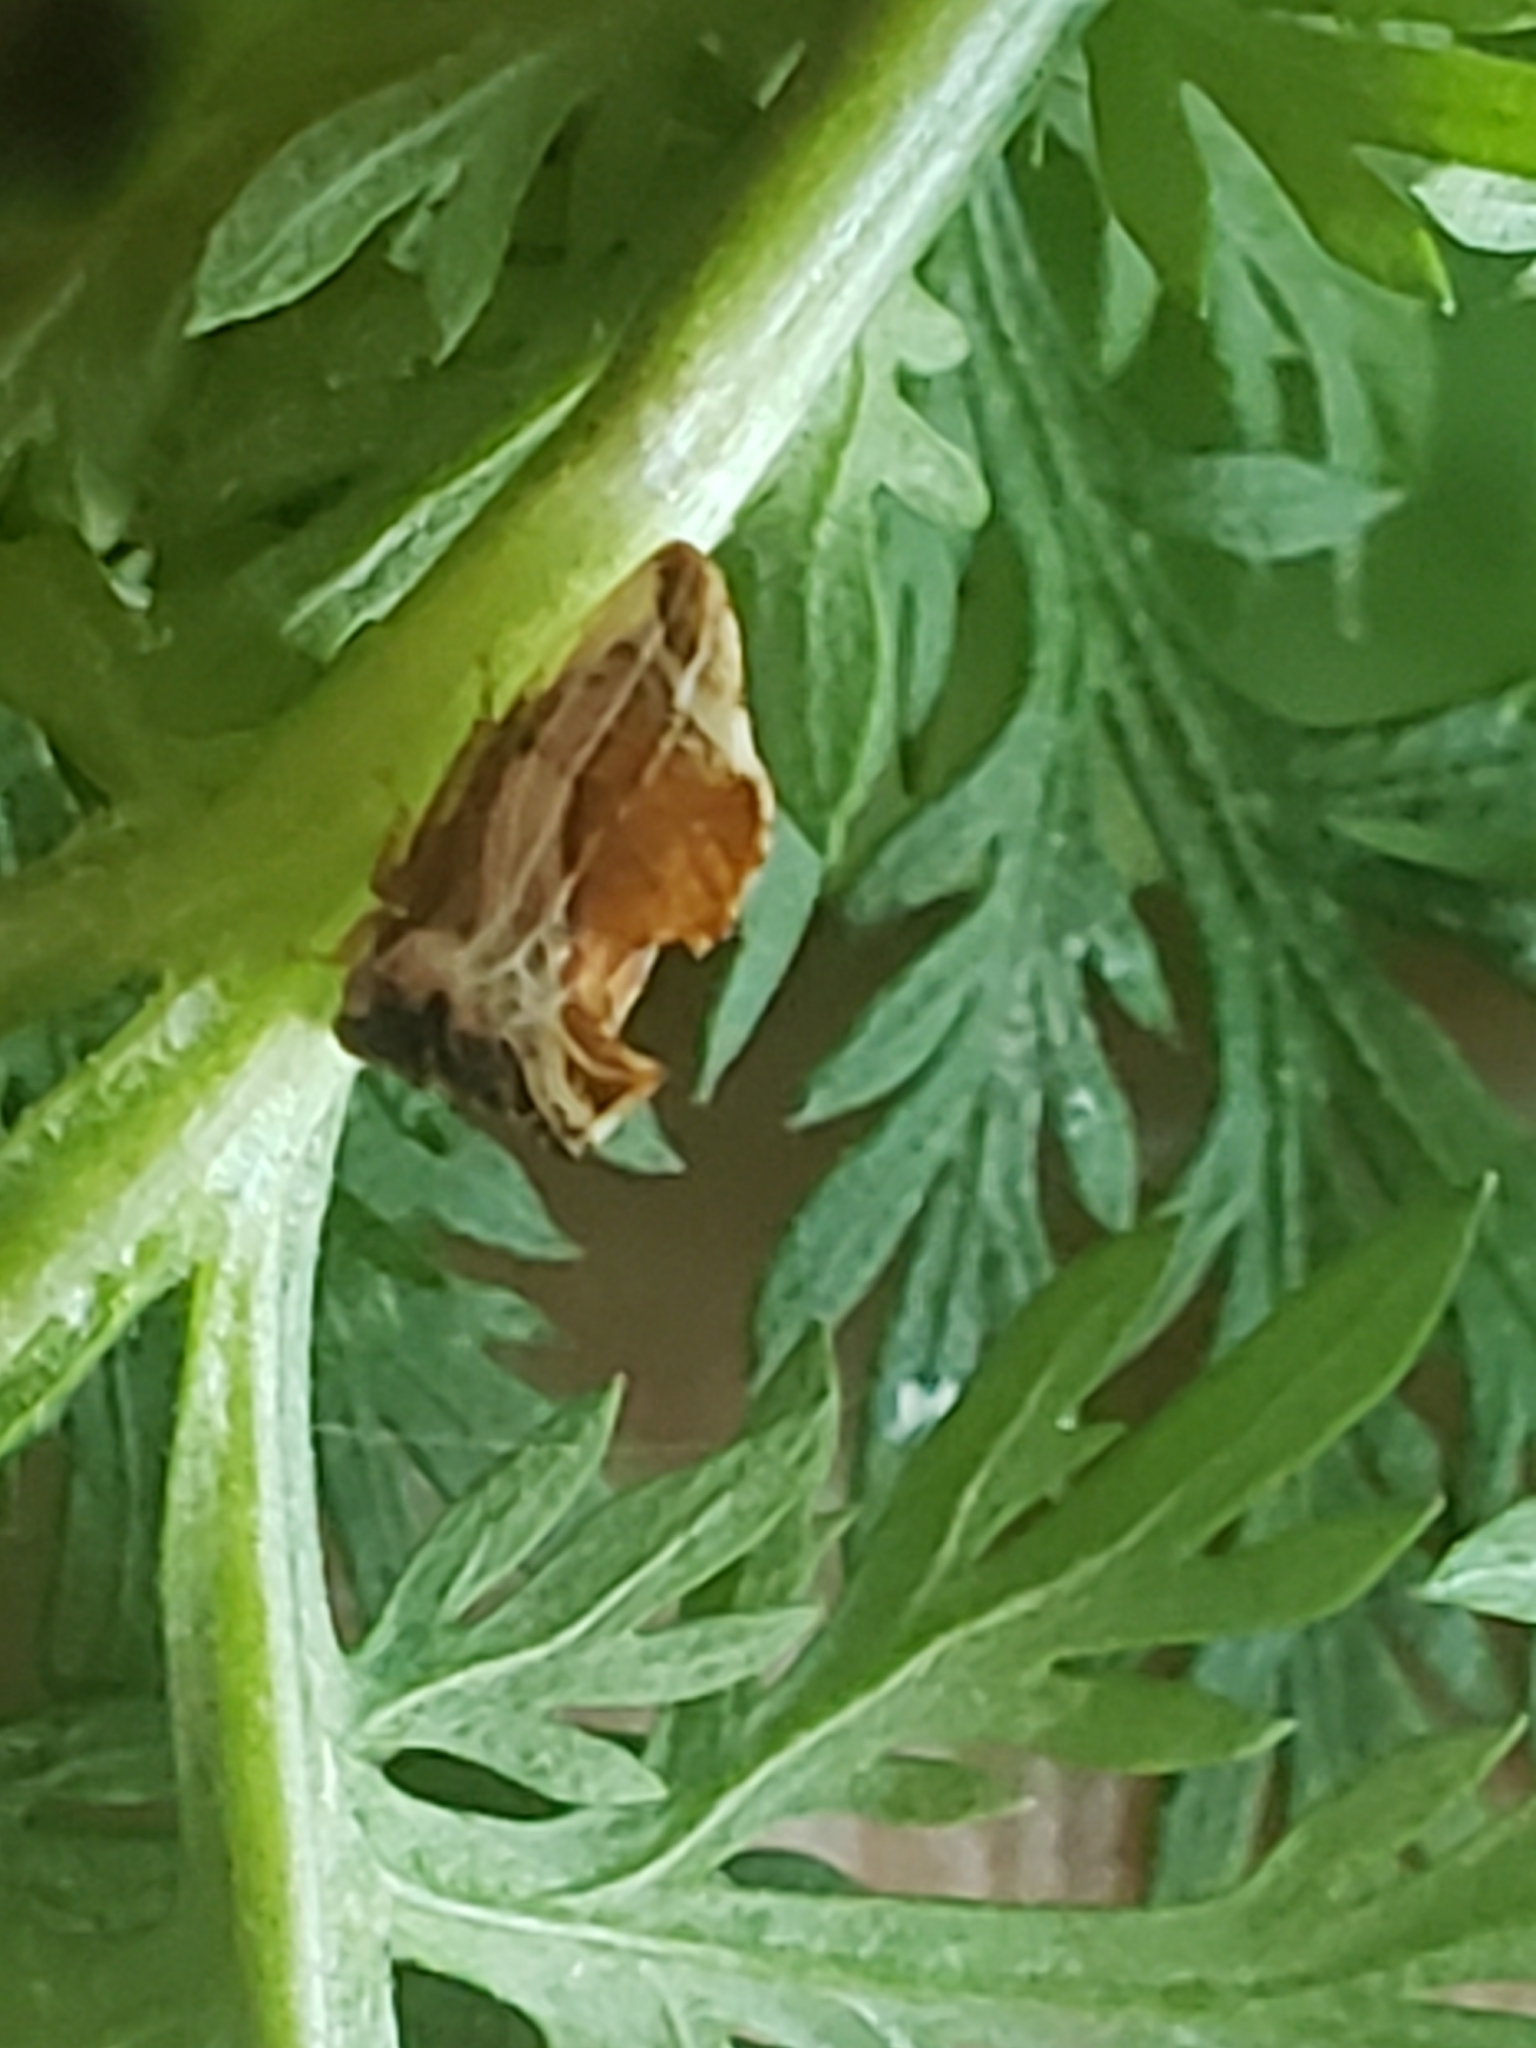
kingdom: Animalia
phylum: Arthropoda
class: Insecta
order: Hemiptera
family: Membracidae
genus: Entylia
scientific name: Entylia carinata
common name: Keeled treehopper
